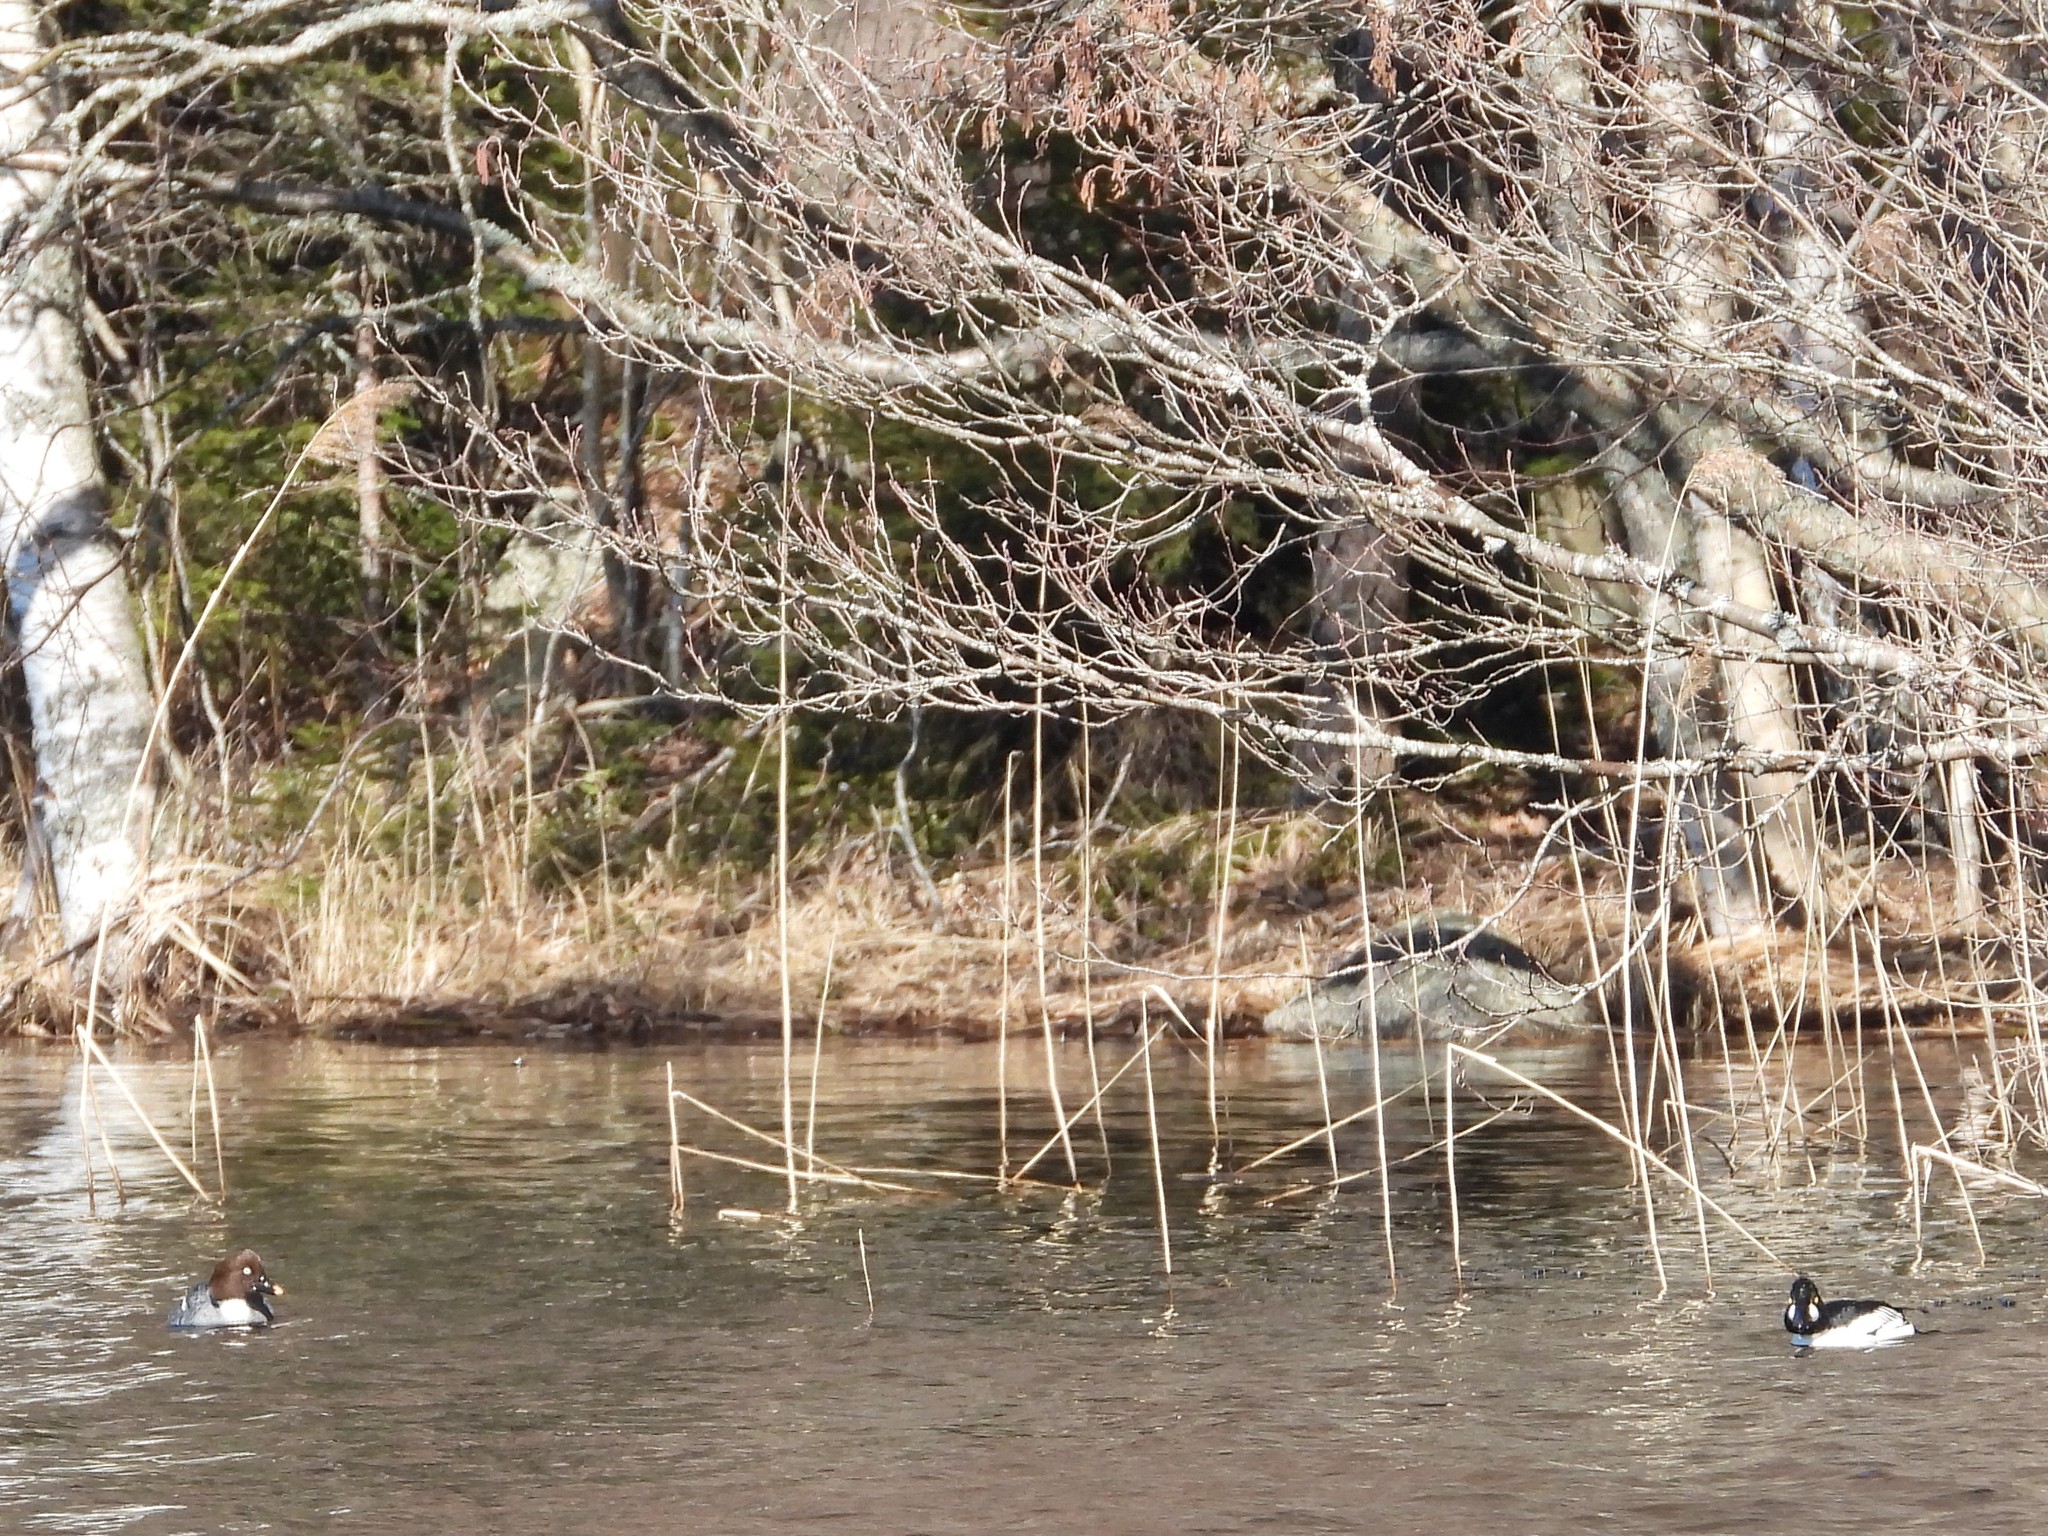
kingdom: Animalia
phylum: Chordata
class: Aves
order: Anseriformes
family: Anatidae
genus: Bucephala
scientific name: Bucephala clangula
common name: Common goldeneye
